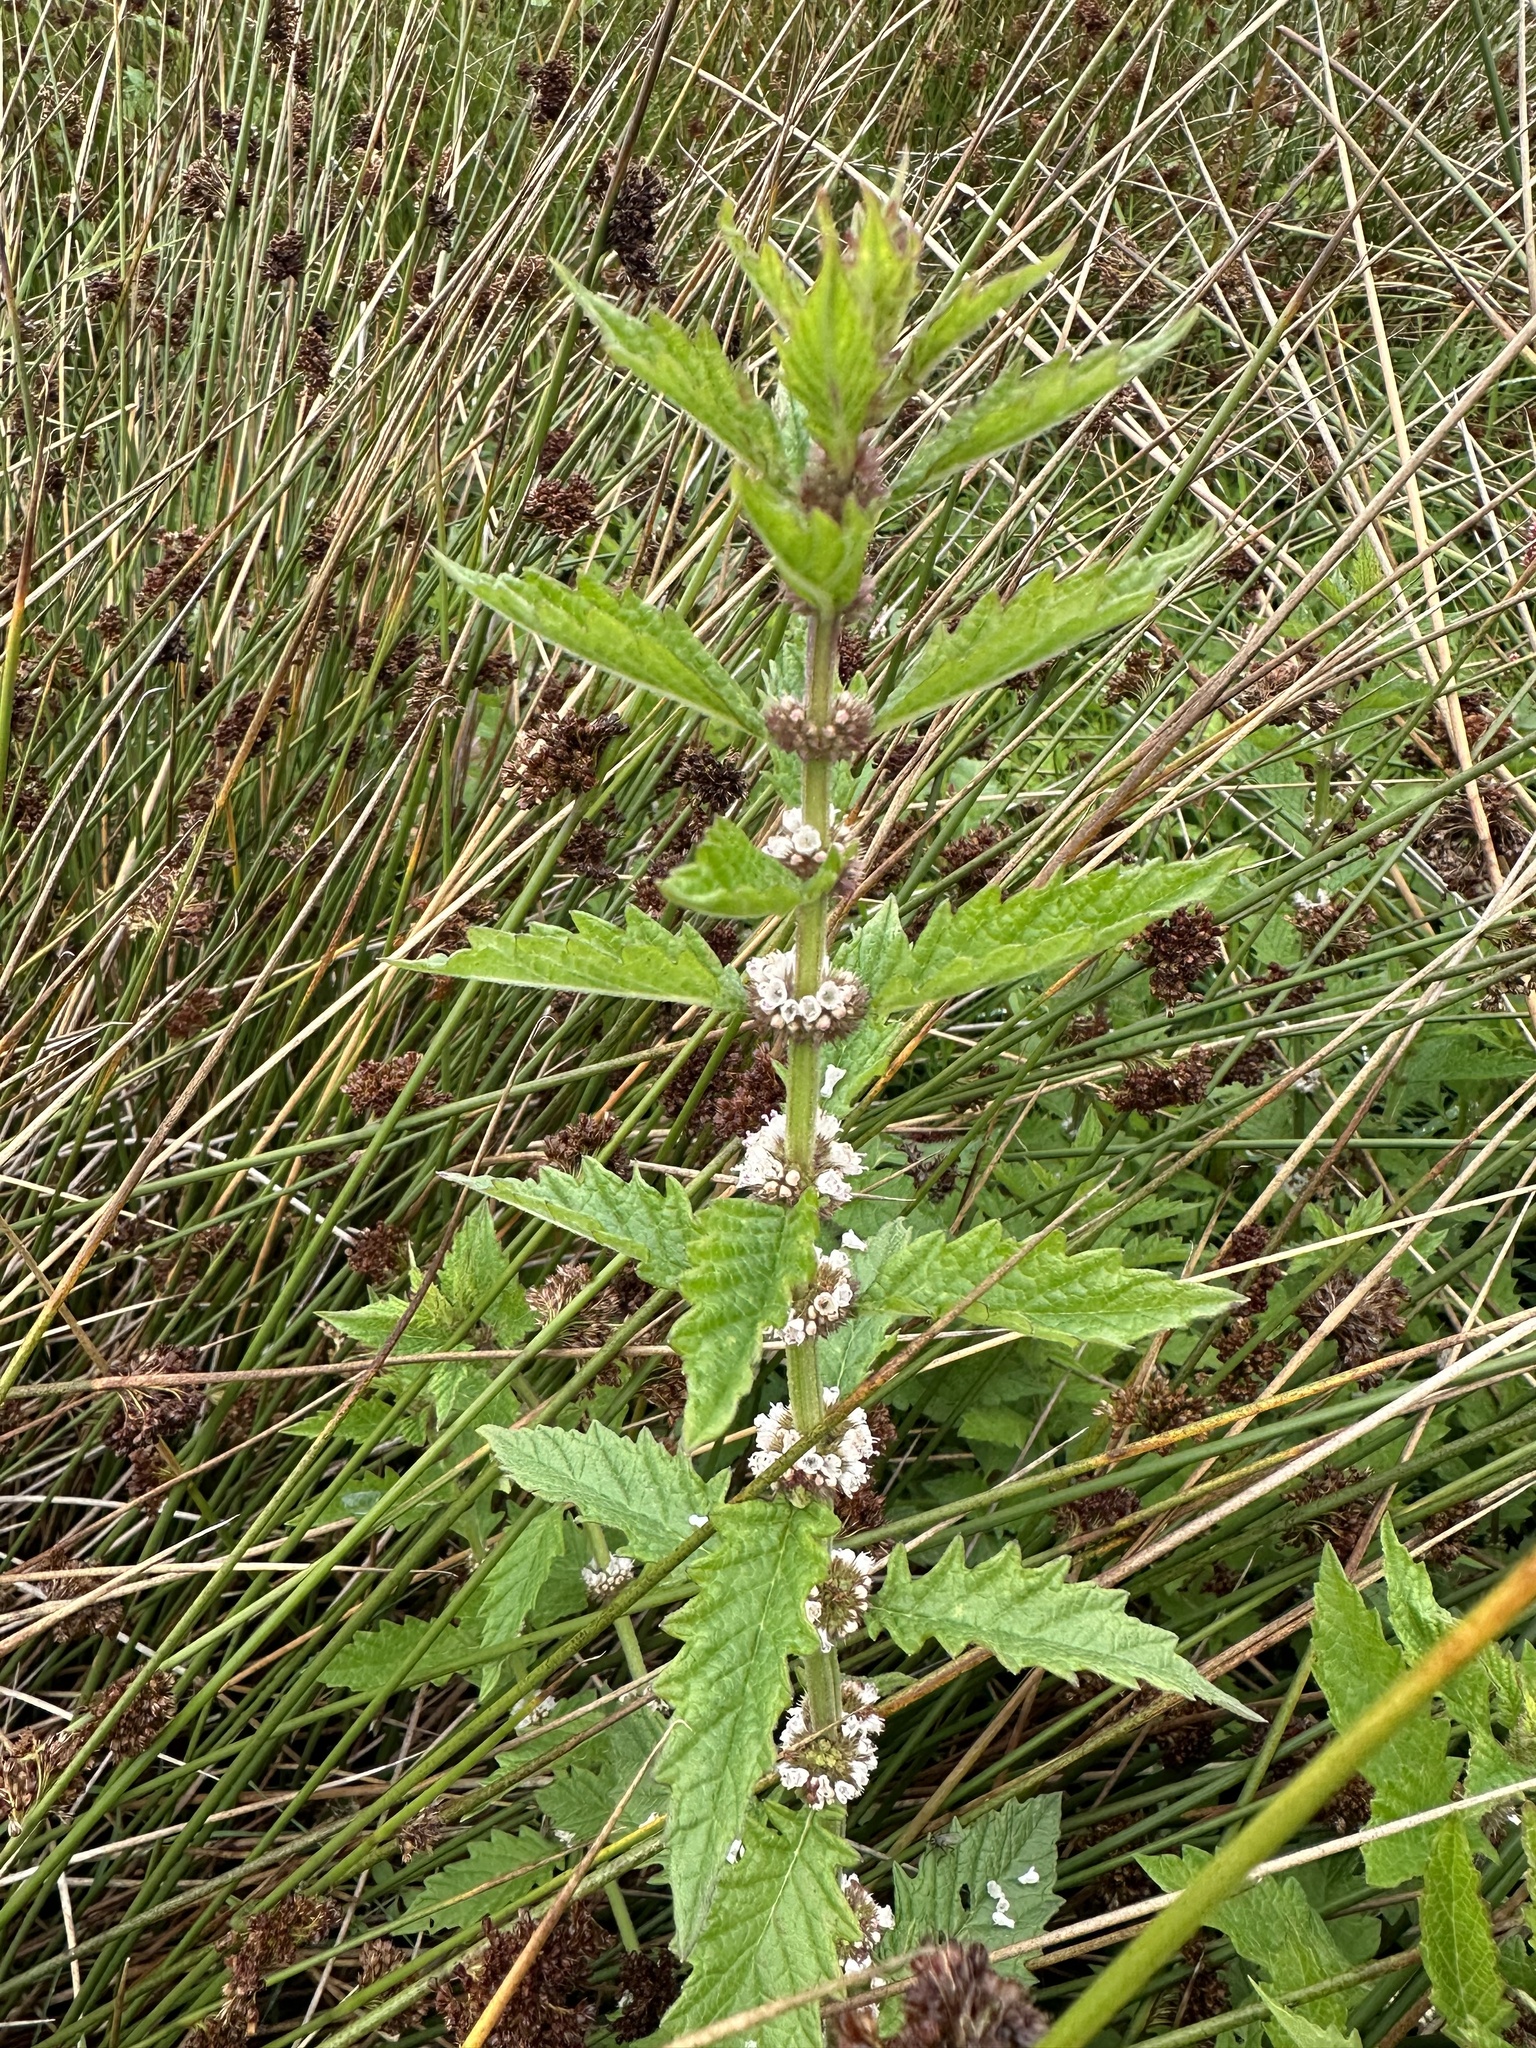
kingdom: Plantae
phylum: Tracheophyta
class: Magnoliopsida
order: Lamiales
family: Lamiaceae
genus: Lycopus
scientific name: Lycopus europaeus
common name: European bugleweed
